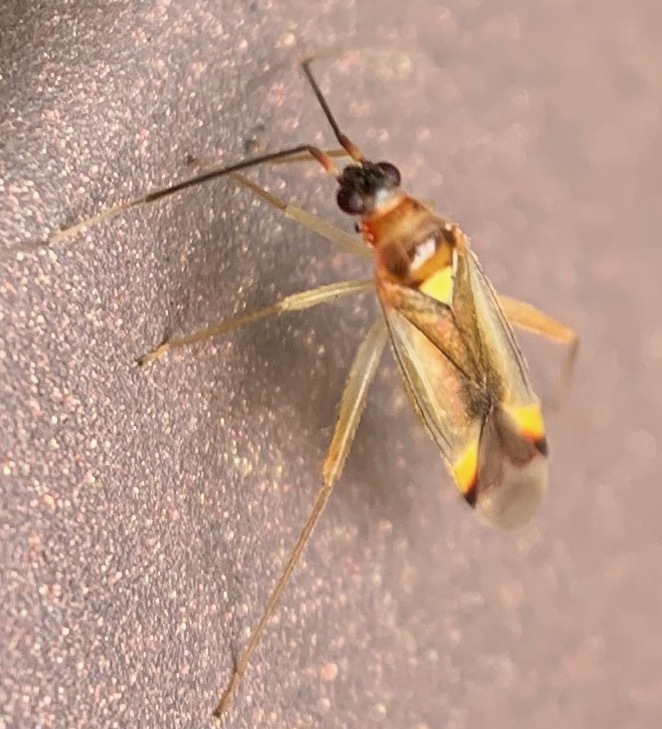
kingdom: Animalia
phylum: Arthropoda
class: Insecta
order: Hemiptera
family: Miridae
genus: Campyloneura
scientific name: Campyloneura virgula
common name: Predatory bug
